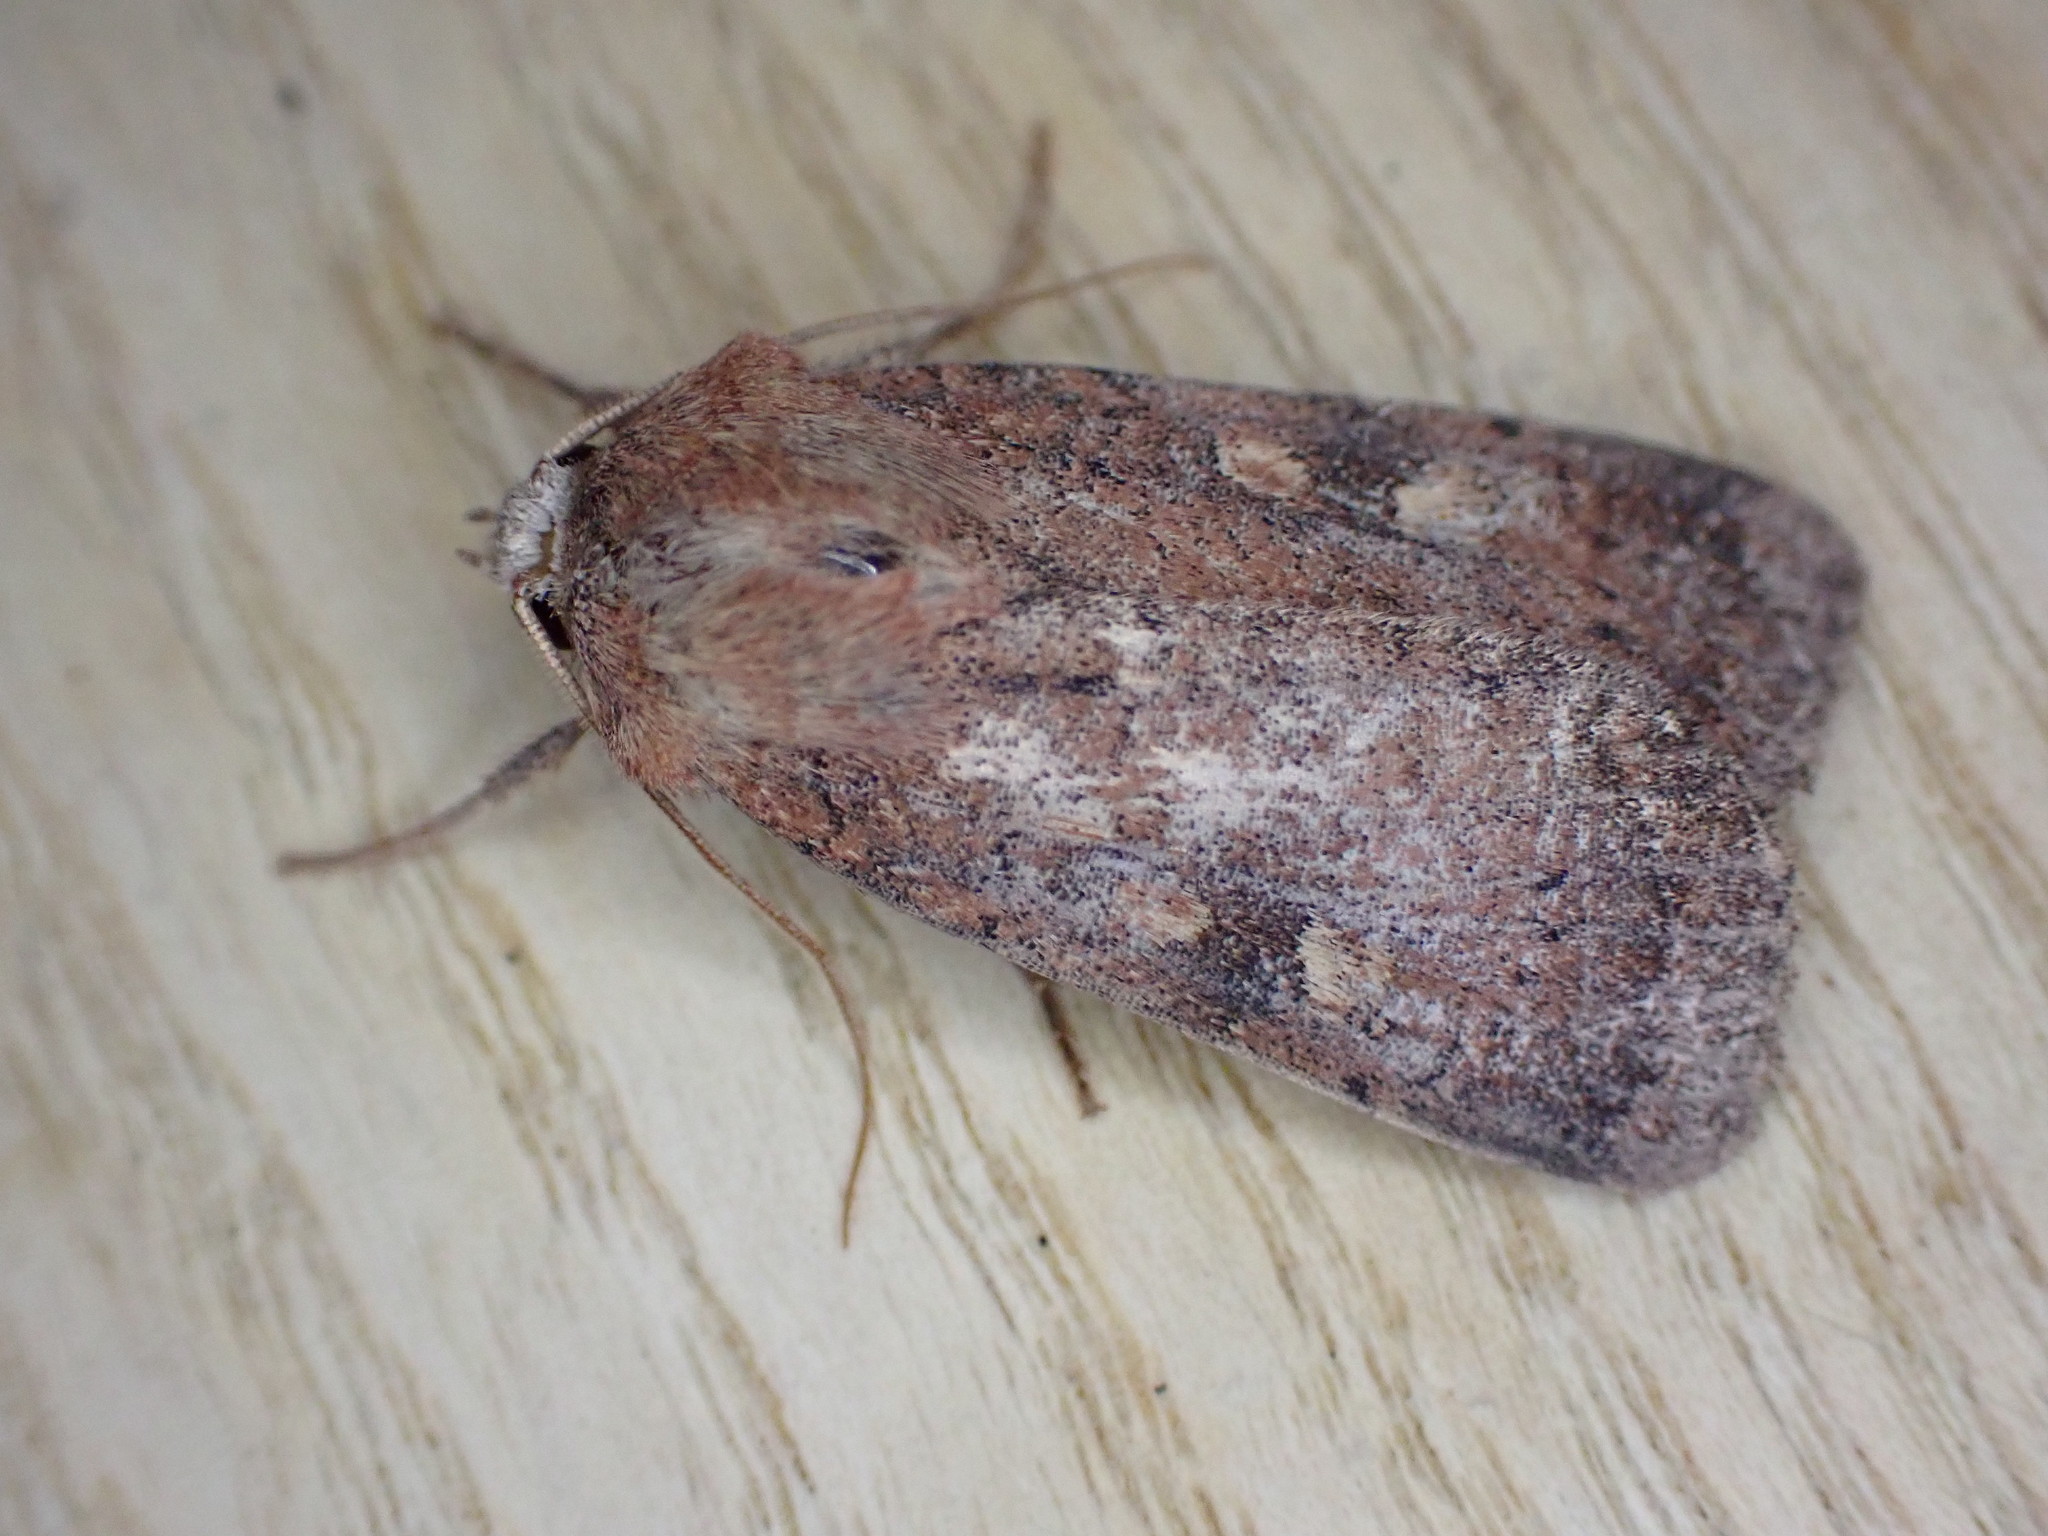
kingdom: Animalia
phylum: Arthropoda
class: Insecta
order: Lepidoptera
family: Noctuidae
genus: Xestia
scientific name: Xestia xanthographa
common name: Square-spot rustic
